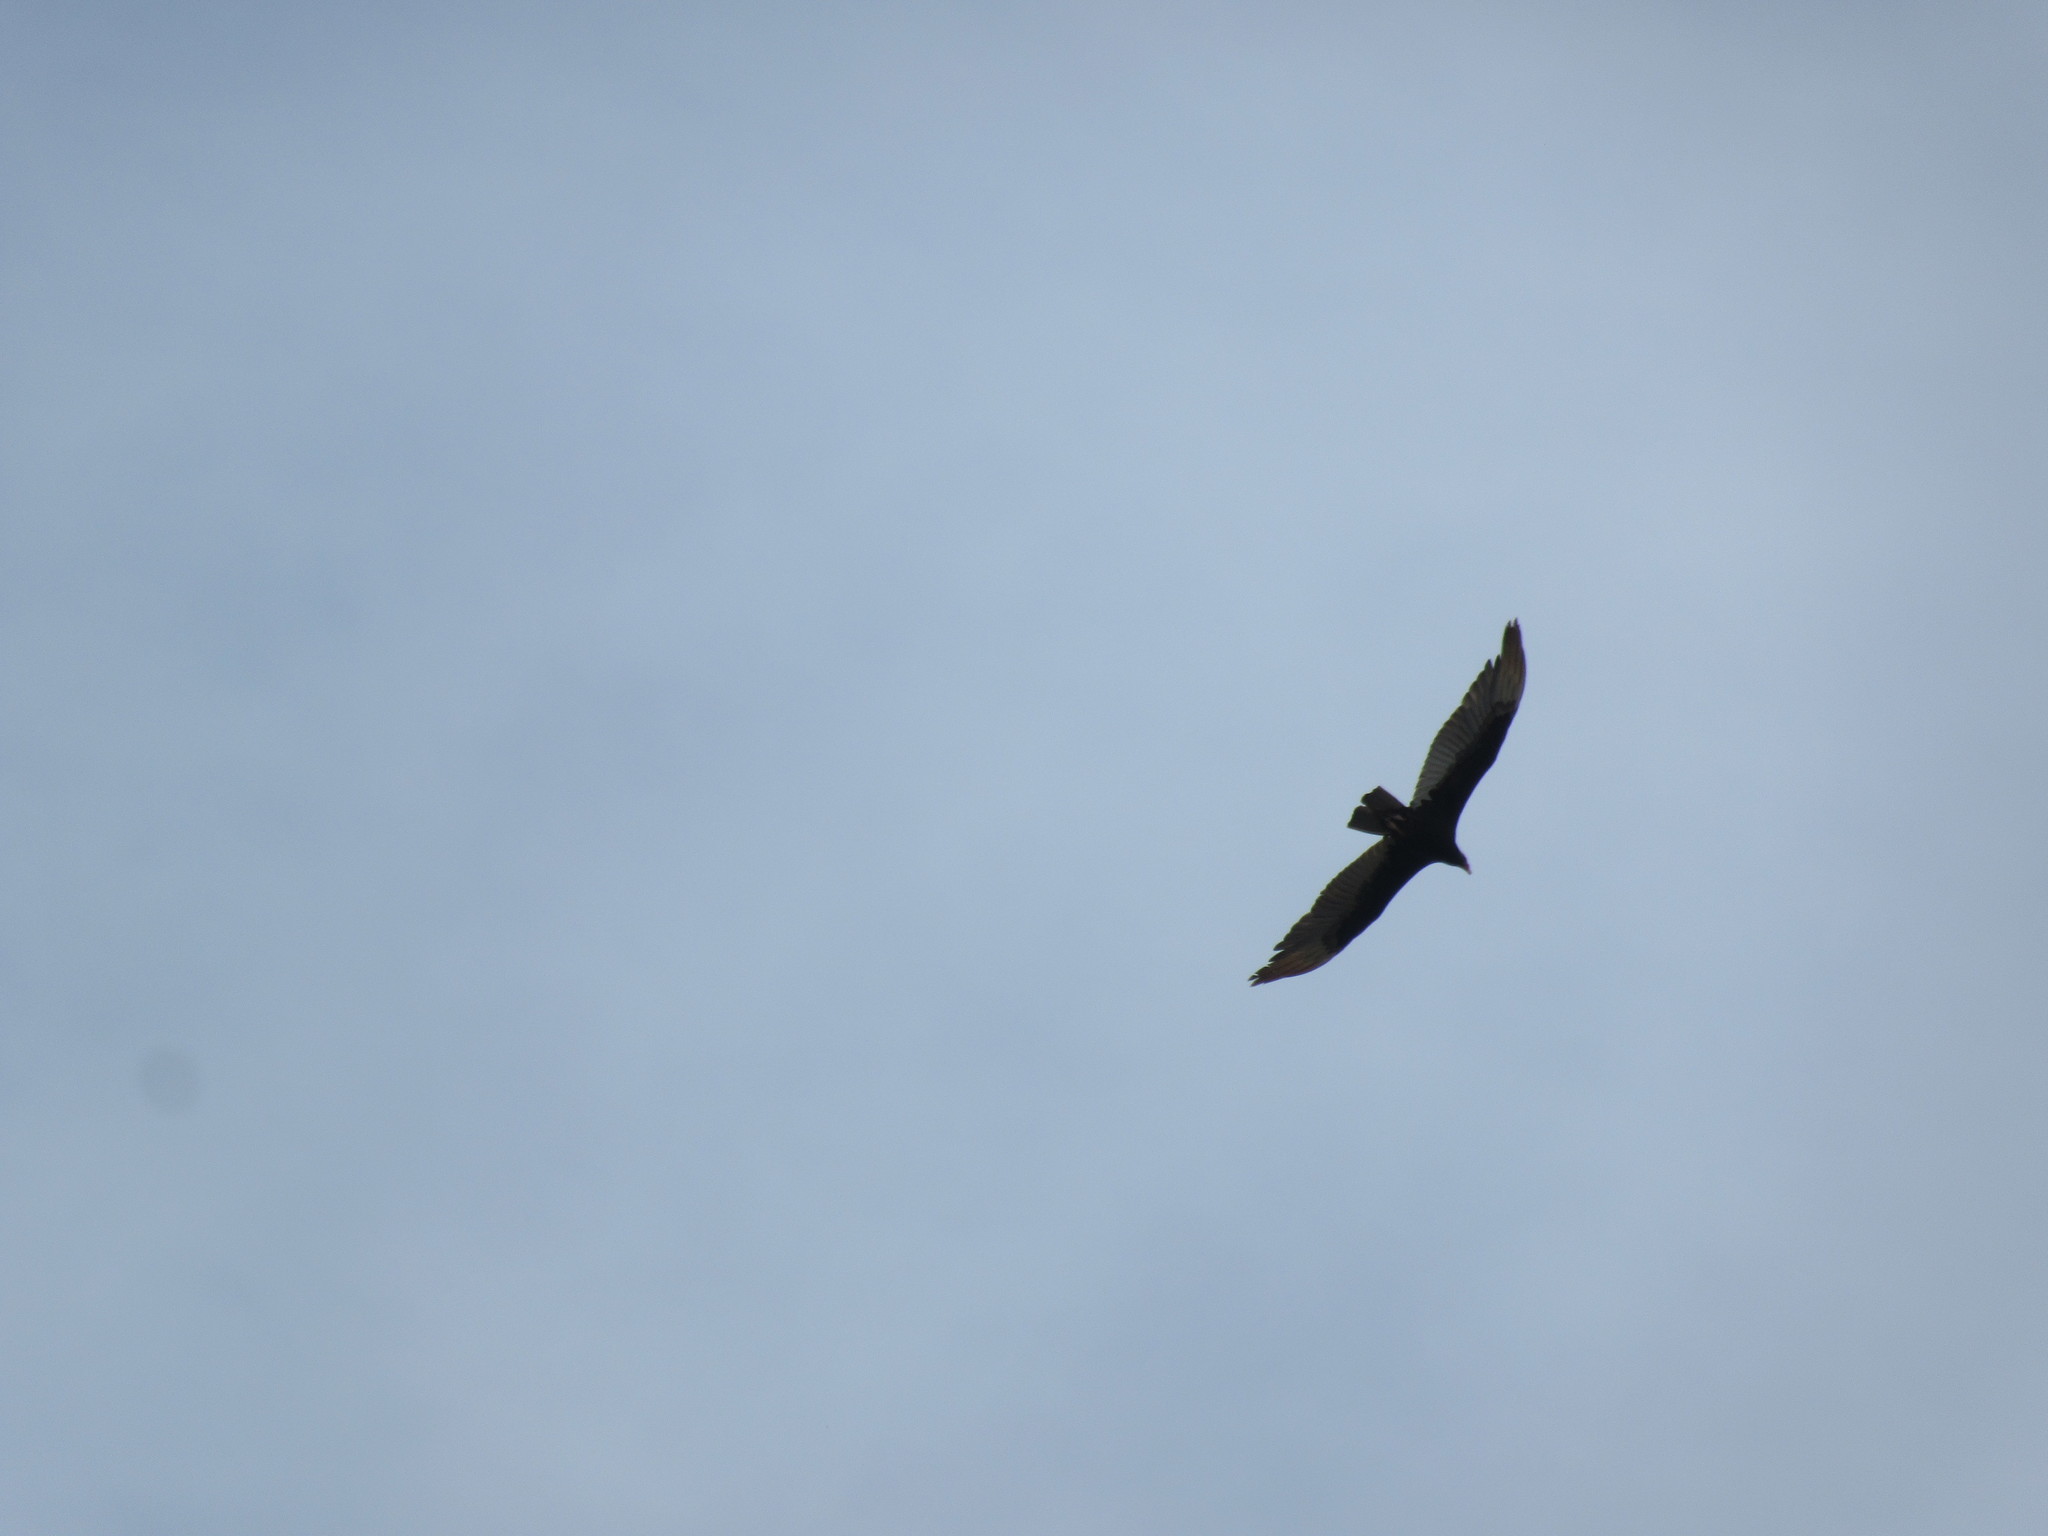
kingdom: Animalia
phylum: Chordata
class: Aves
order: Accipitriformes
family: Cathartidae
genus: Cathartes
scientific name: Cathartes aura
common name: Turkey vulture
